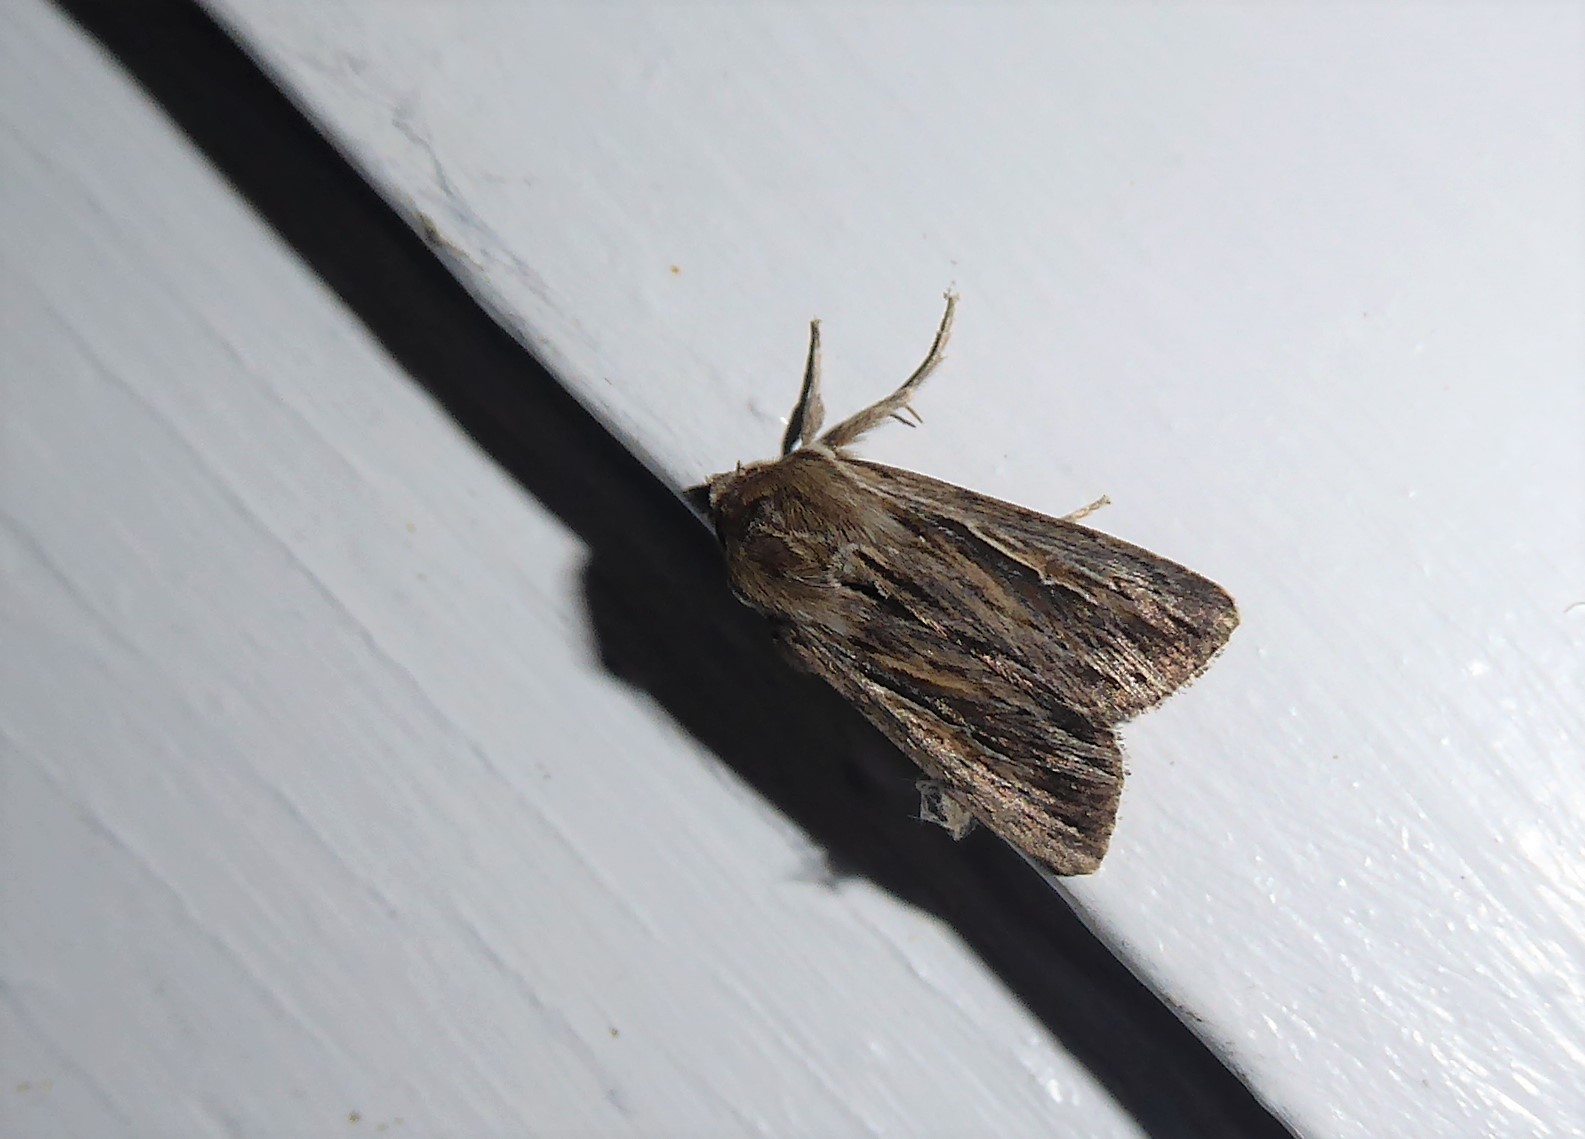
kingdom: Animalia
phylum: Arthropoda
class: Insecta
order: Lepidoptera
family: Noctuidae
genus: Persectania
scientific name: Persectania aversa
